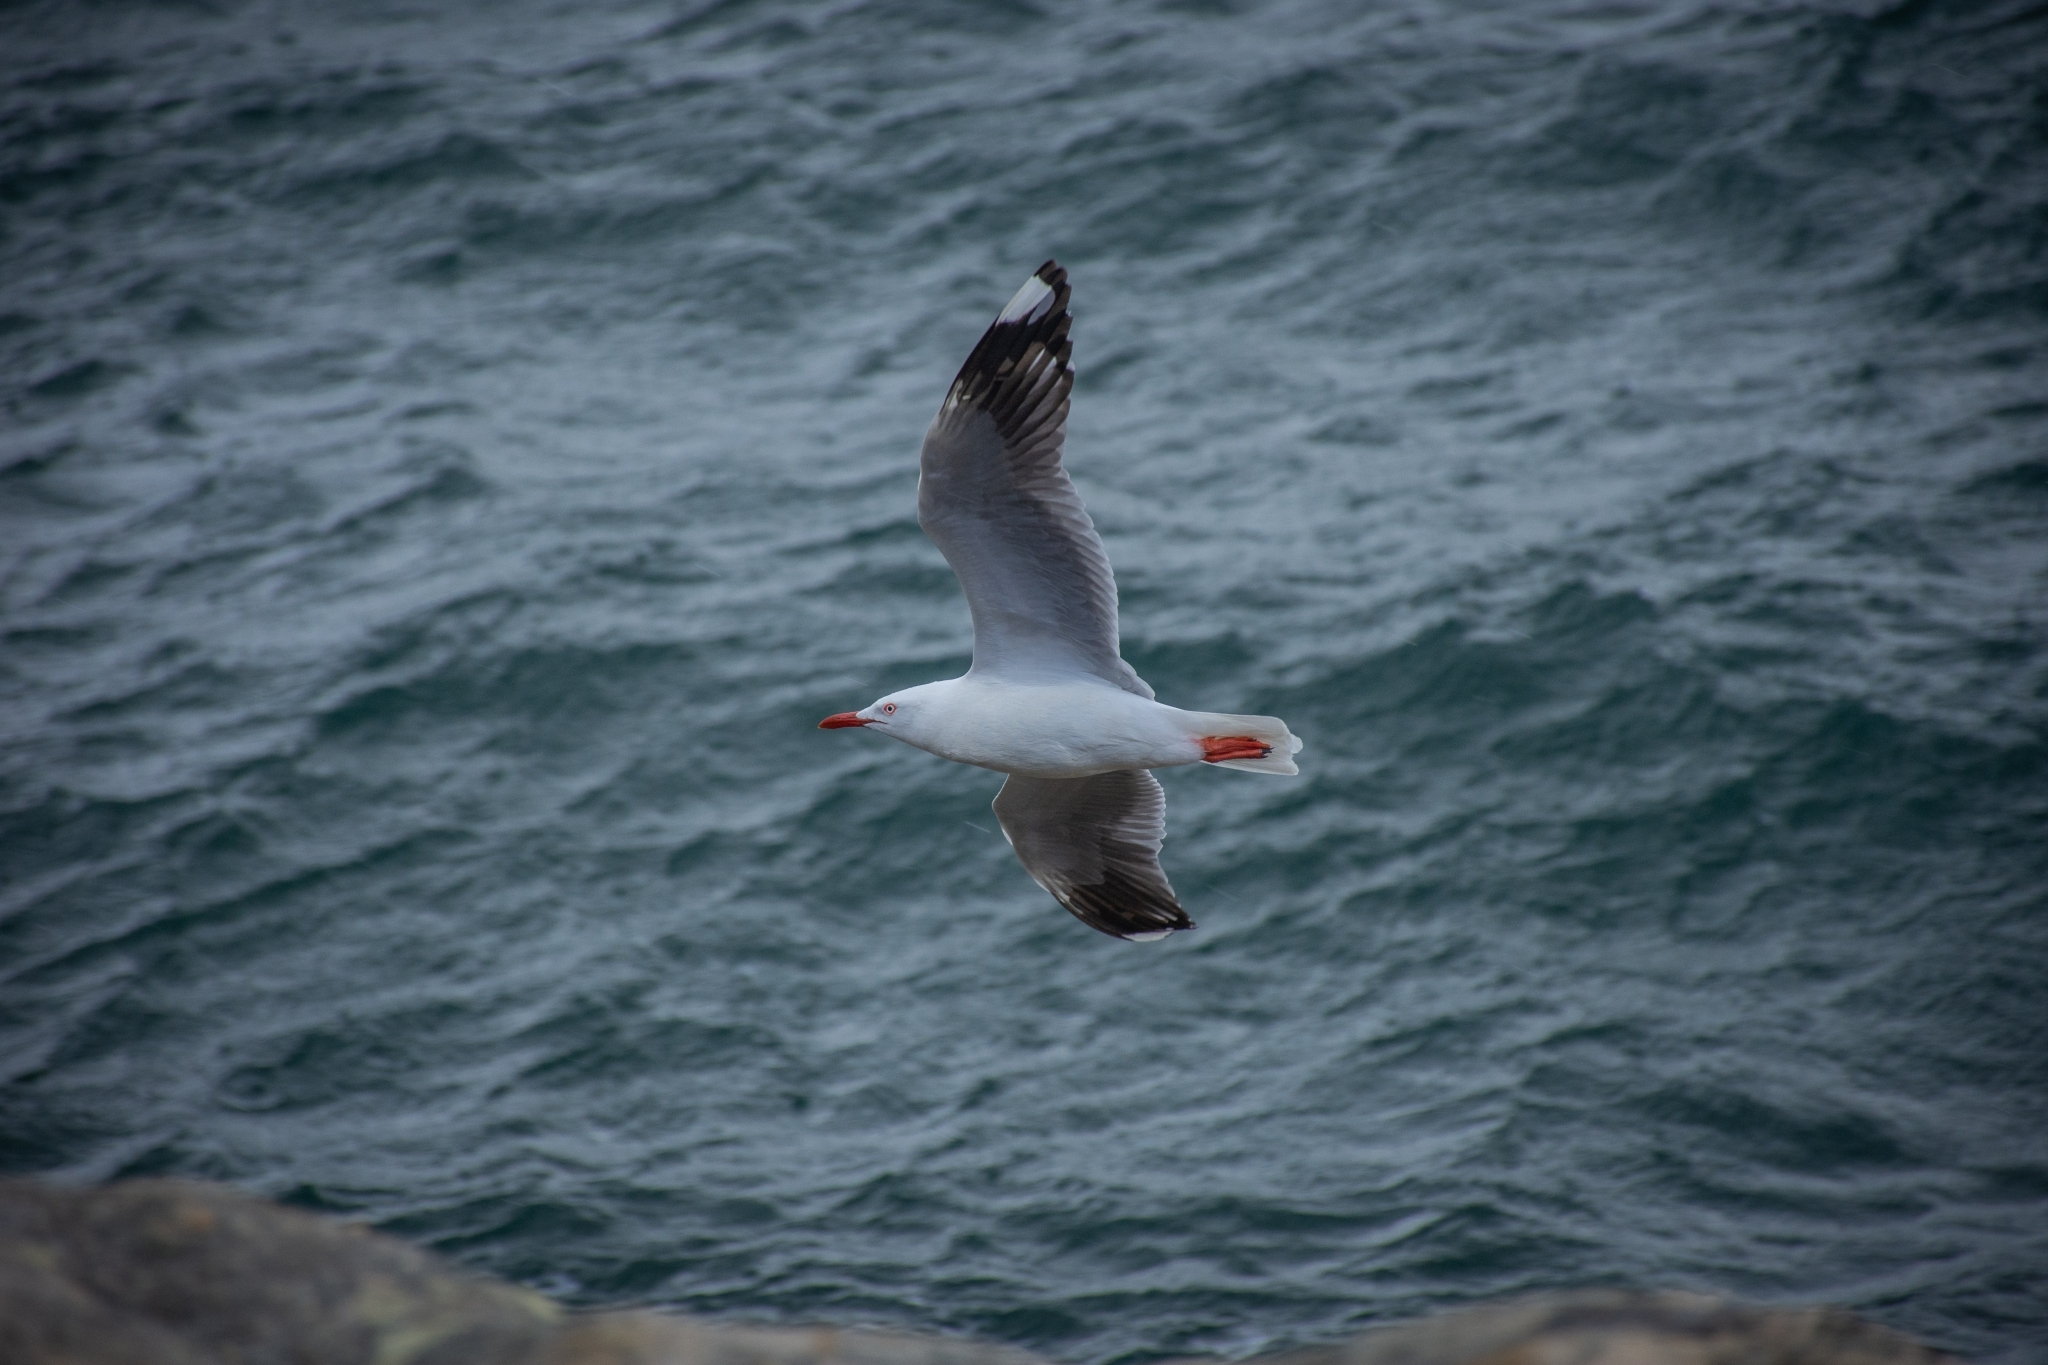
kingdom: Animalia
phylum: Chordata
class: Aves
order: Charadriiformes
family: Laridae
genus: Chroicocephalus
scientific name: Chroicocephalus novaehollandiae
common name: Silver gull
